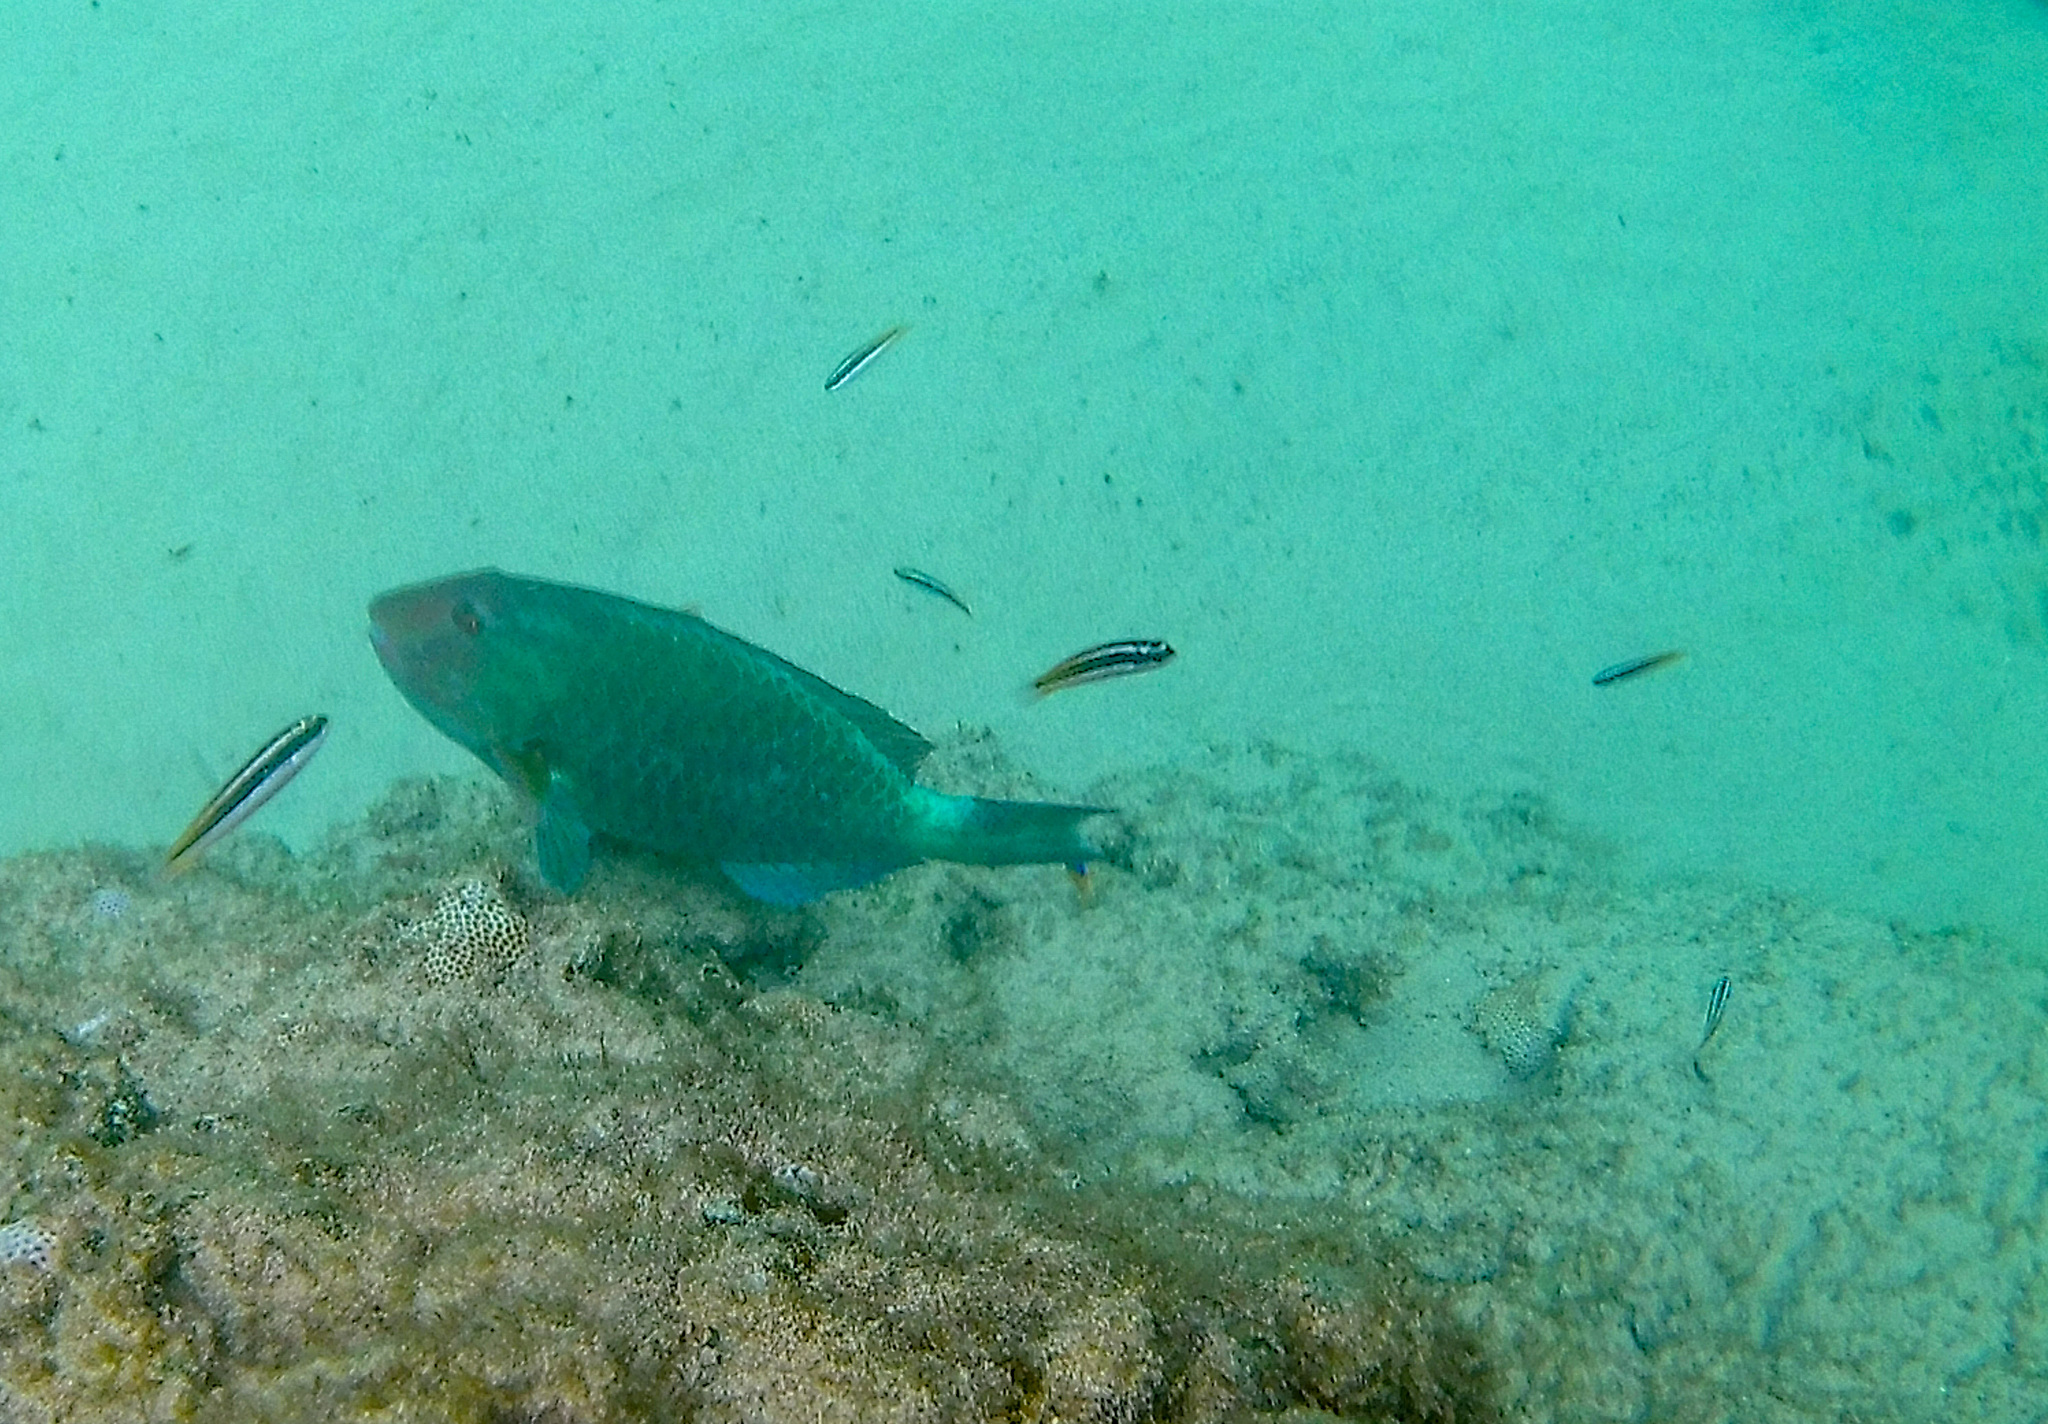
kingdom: Animalia
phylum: Chordata
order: Perciformes
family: Labridae
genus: Thalassoma
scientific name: Thalassoma noronhanum
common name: Noronha wrasse
